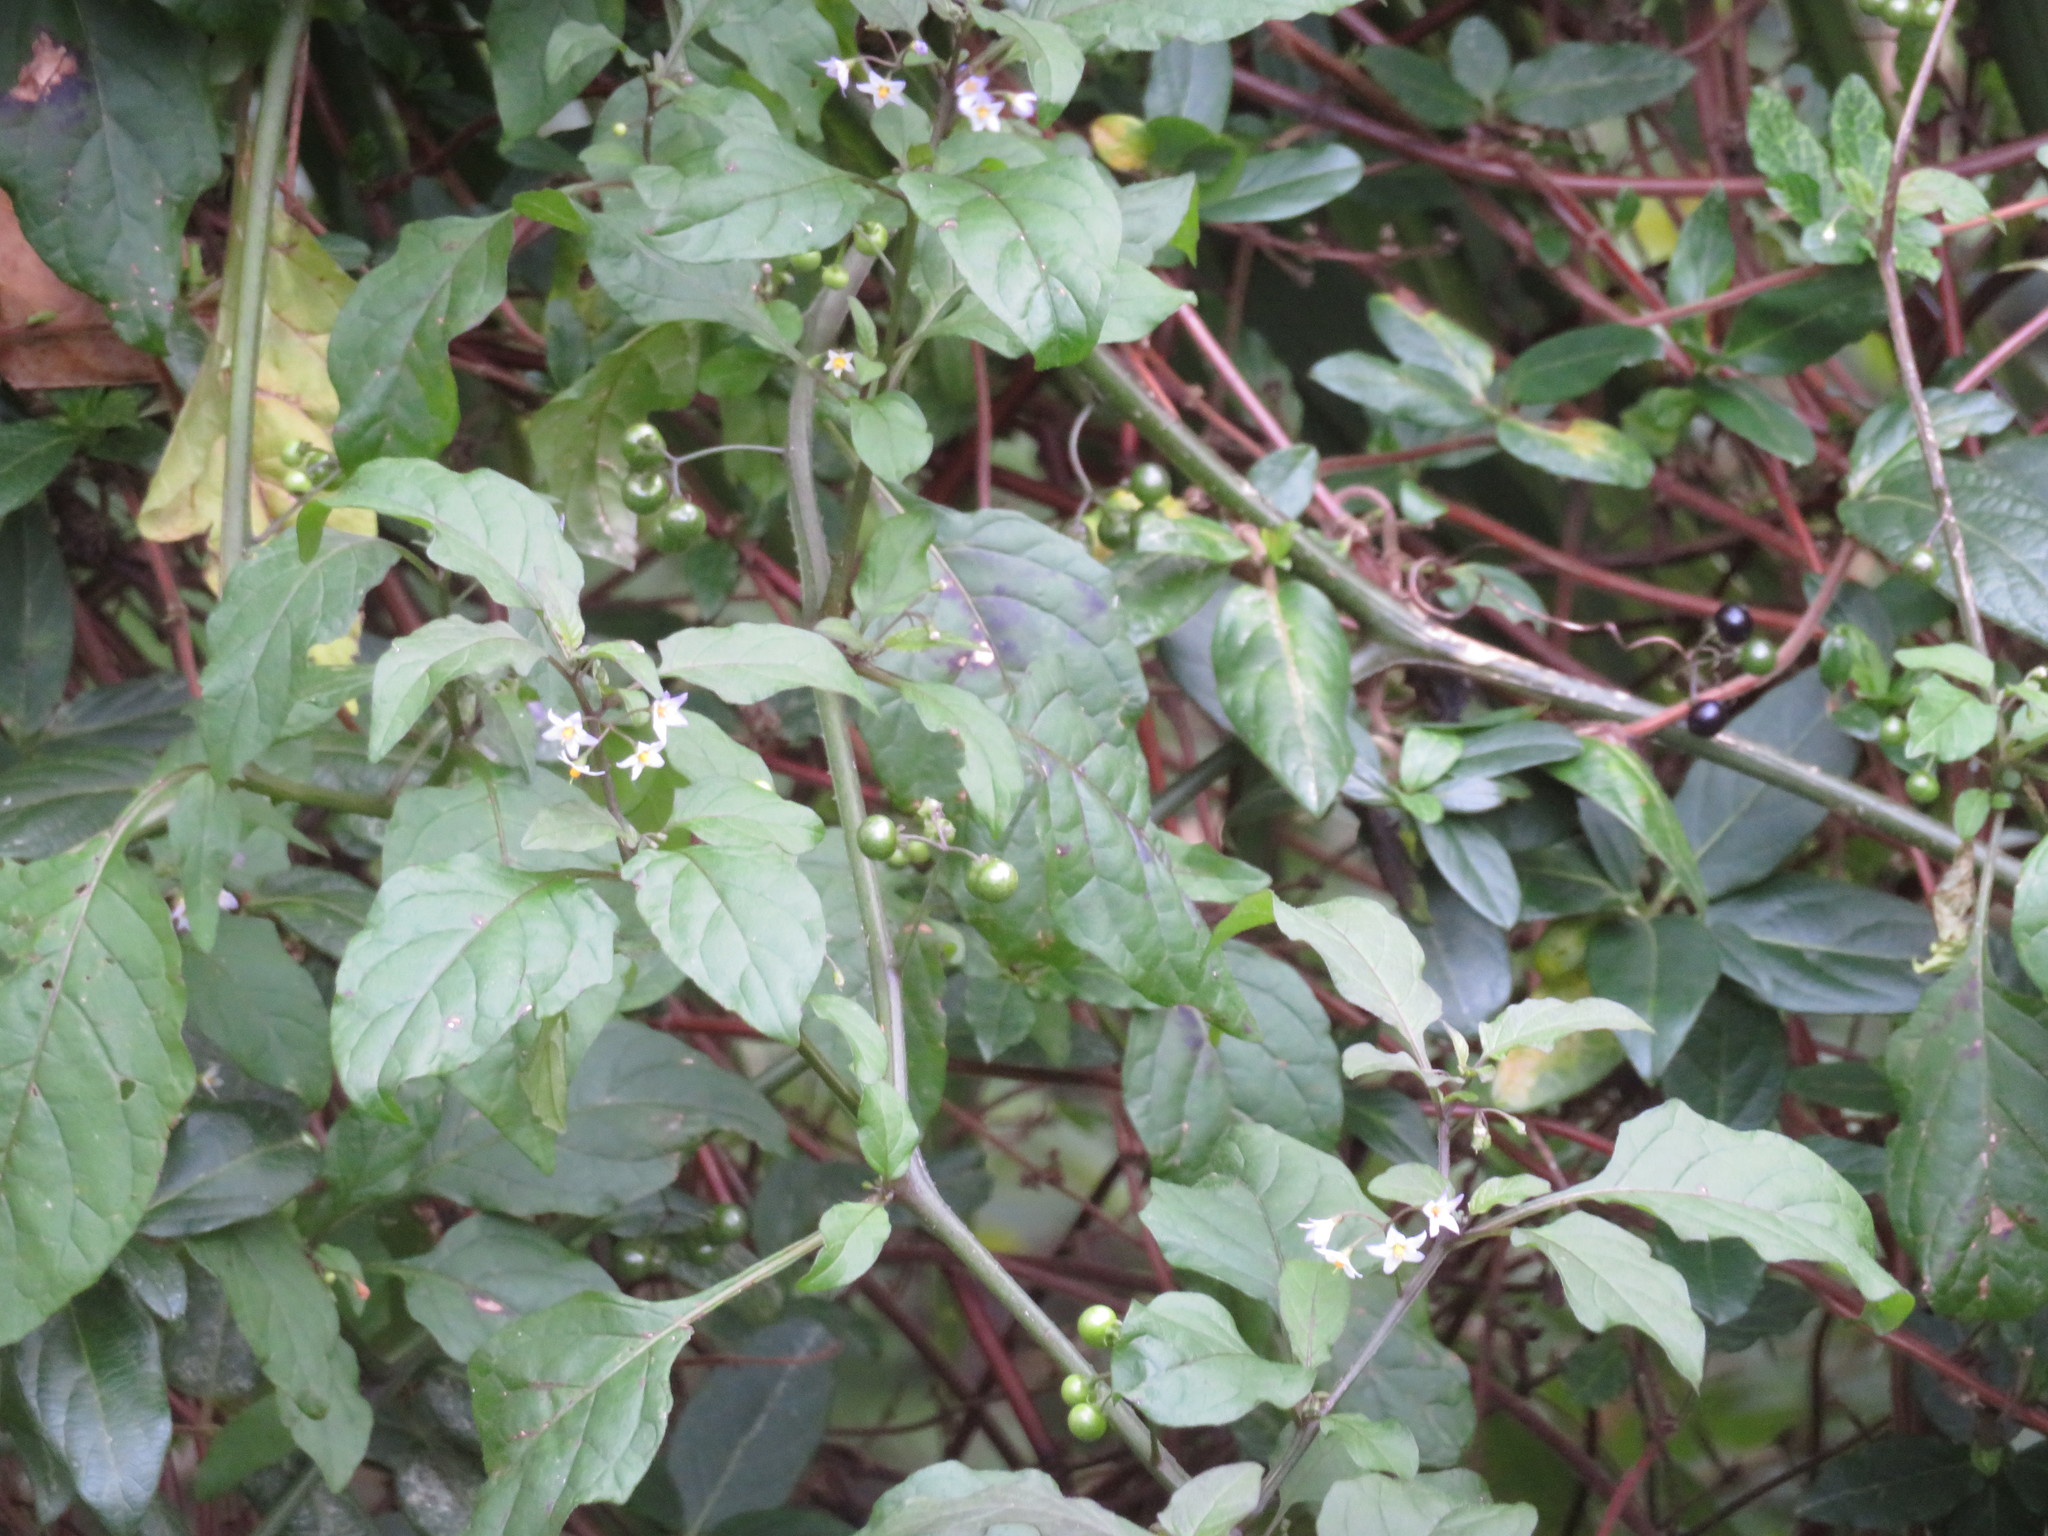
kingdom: Plantae
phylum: Tracheophyta
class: Magnoliopsida
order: Solanales
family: Solanaceae
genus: Solanum
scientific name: Solanum americanum
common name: American black nightshade
